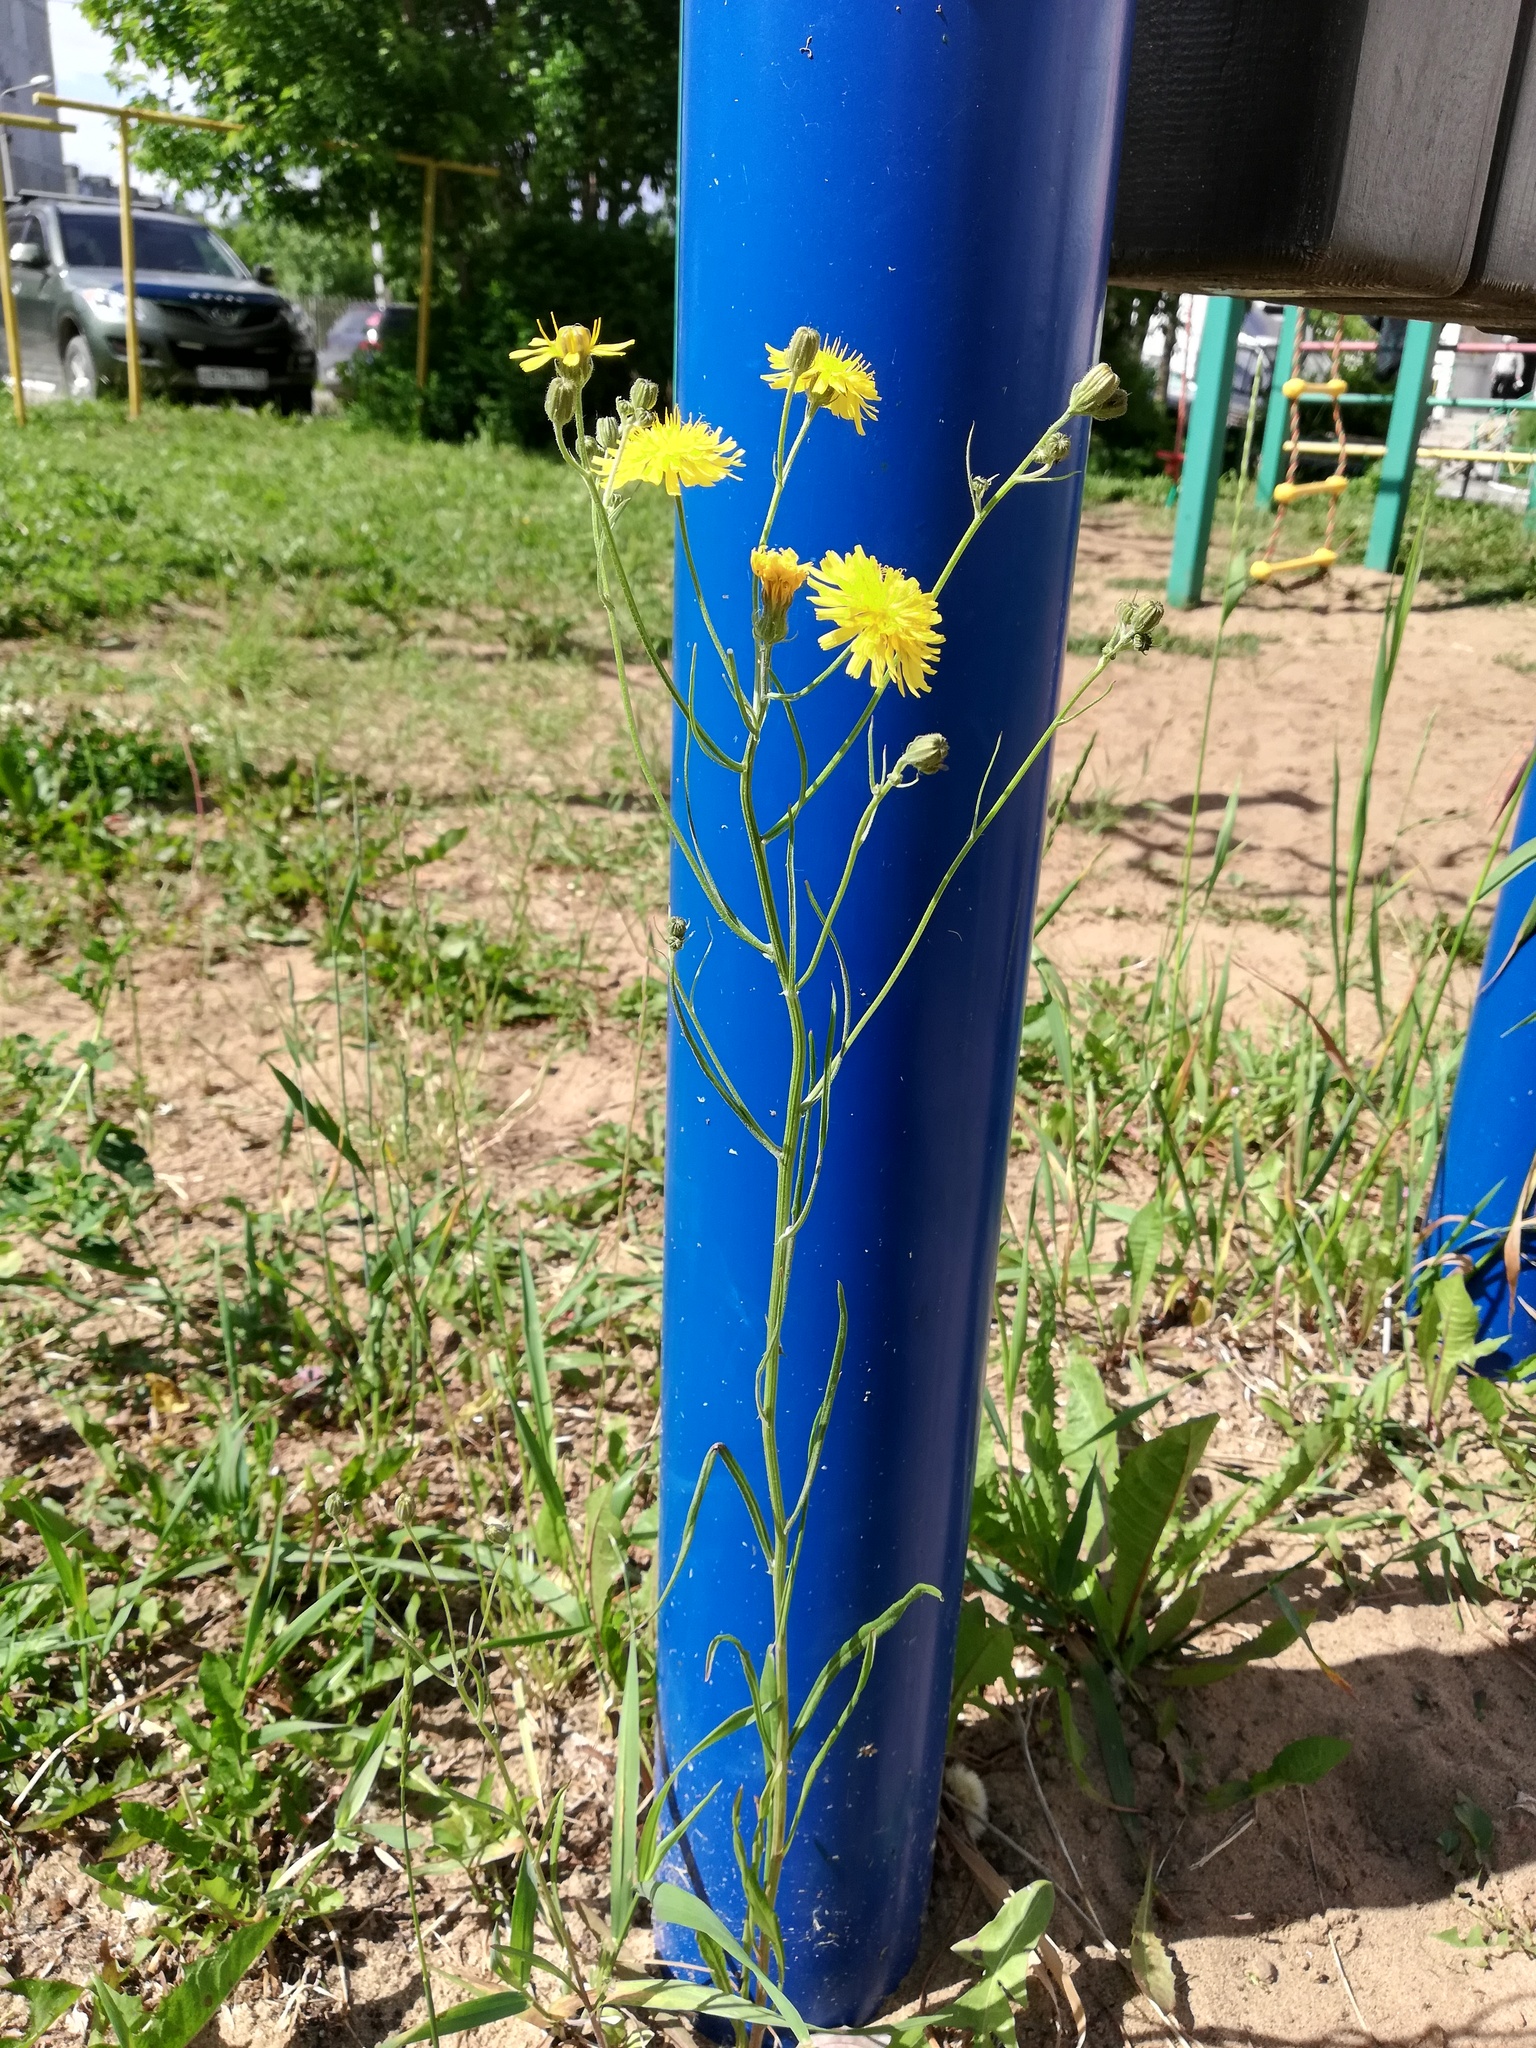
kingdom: Plantae
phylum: Tracheophyta
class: Magnoliopsida
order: Asterales
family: Asteraceae
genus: Crepis
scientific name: Crepis tectorum
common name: Narrow-leaved hawk's-beard
